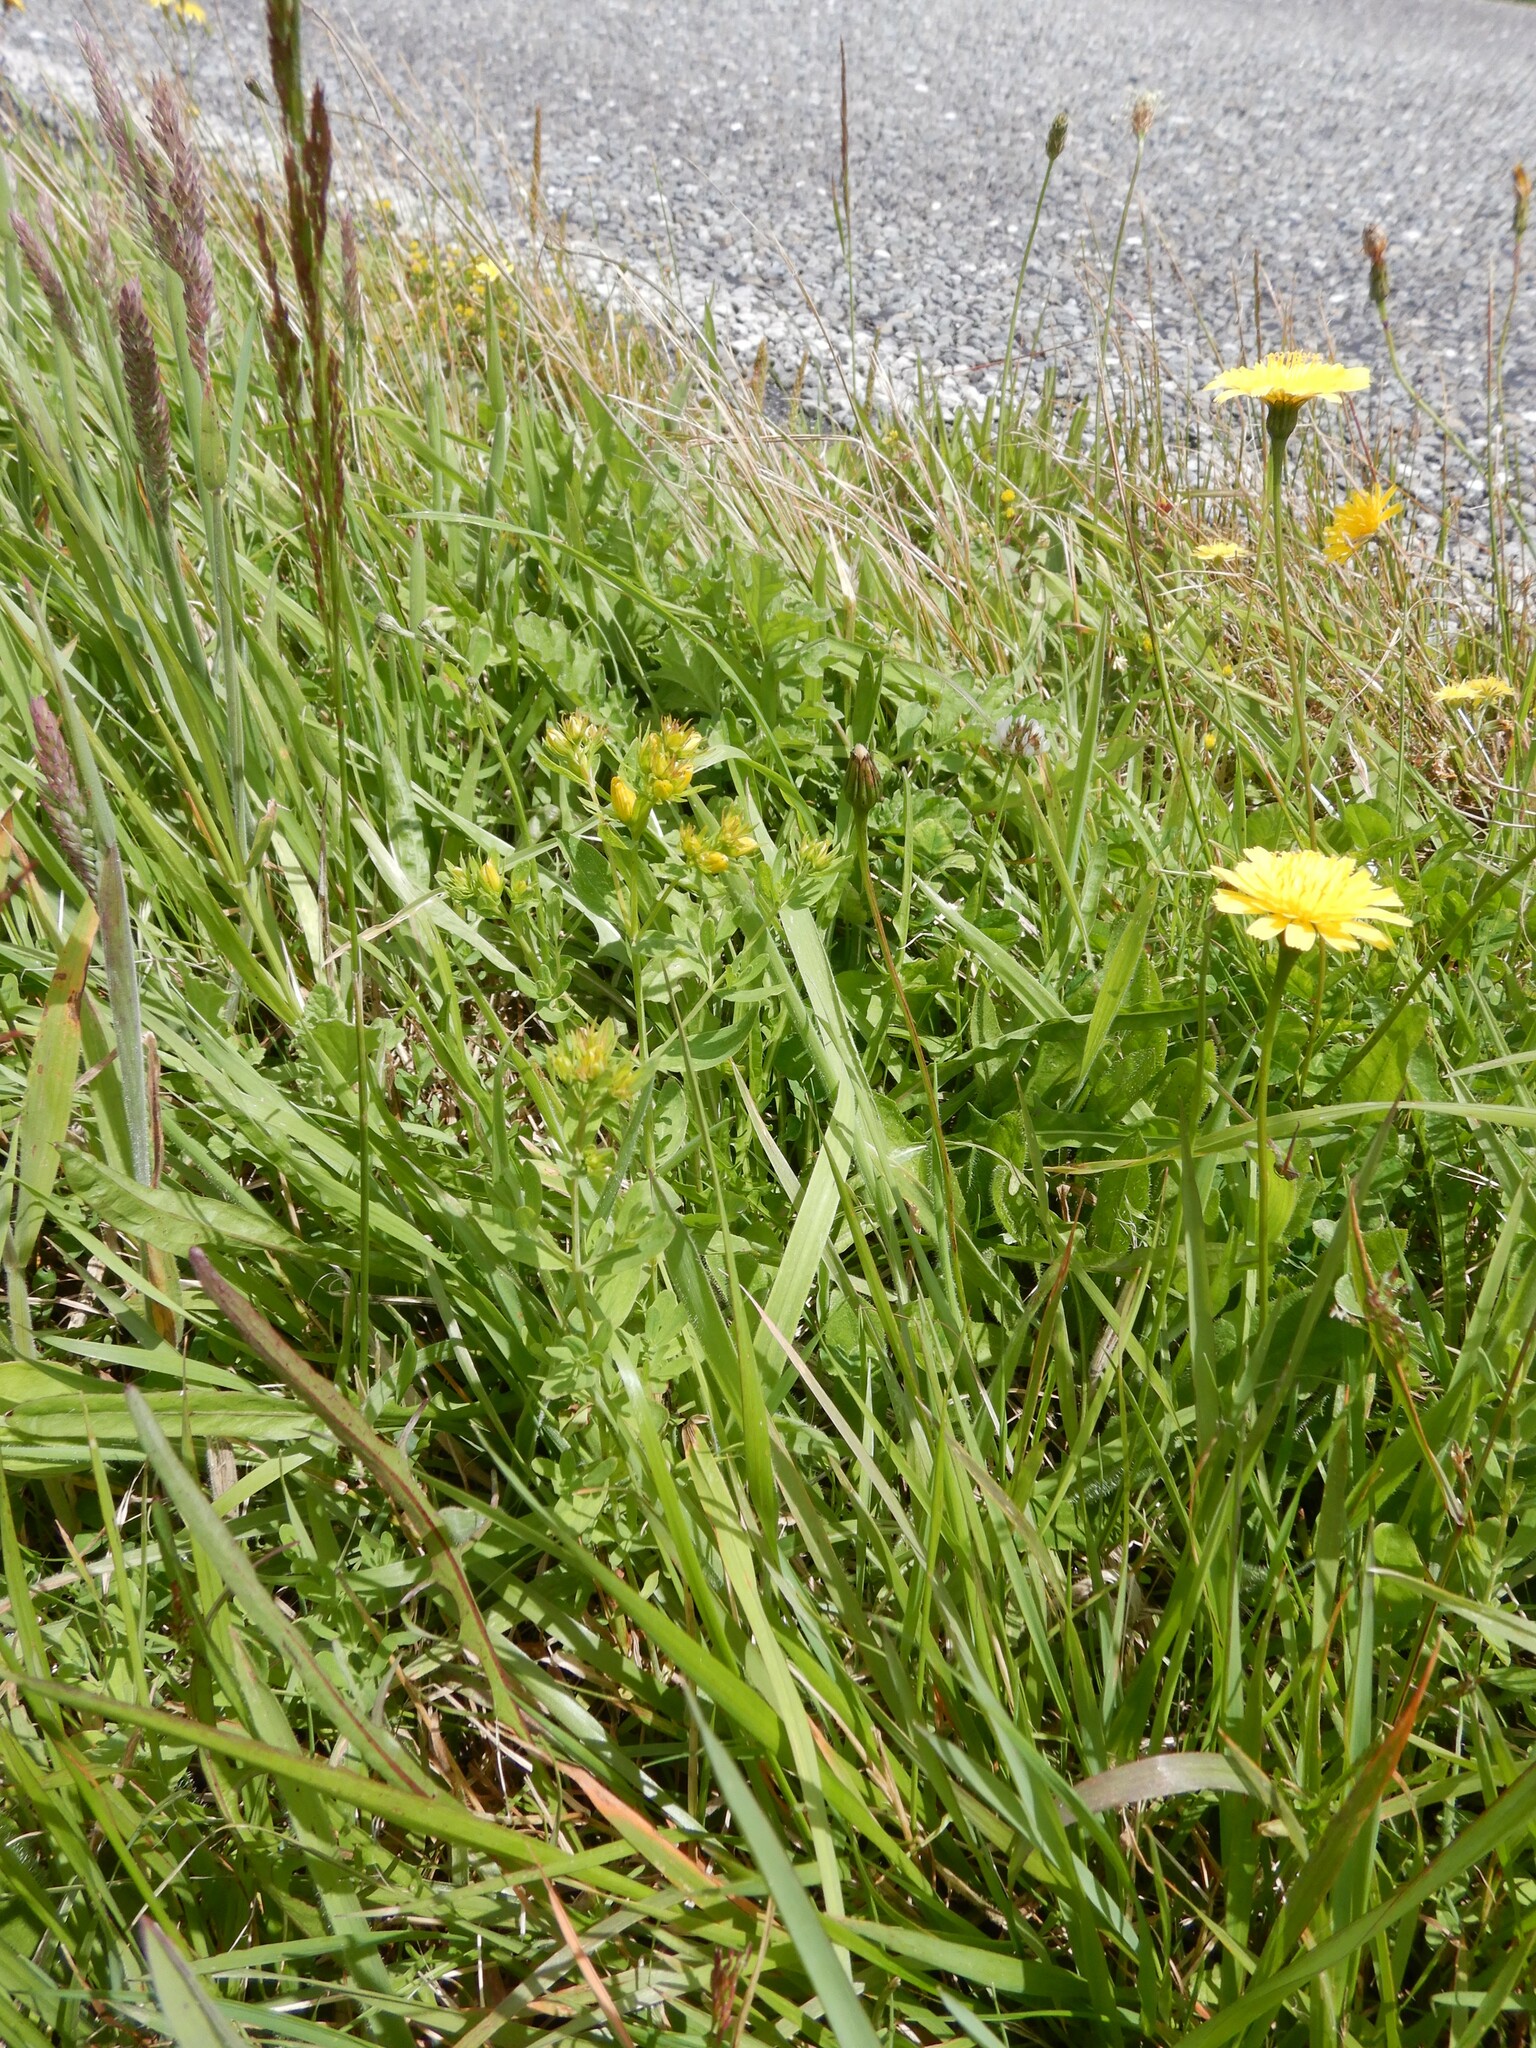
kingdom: Plantae
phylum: Tracheophyta
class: Magnoliopsida
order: Malpighiales
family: Hypericaceae
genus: Hypericum
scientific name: Hypericum perforatum
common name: Common st. johnswort
